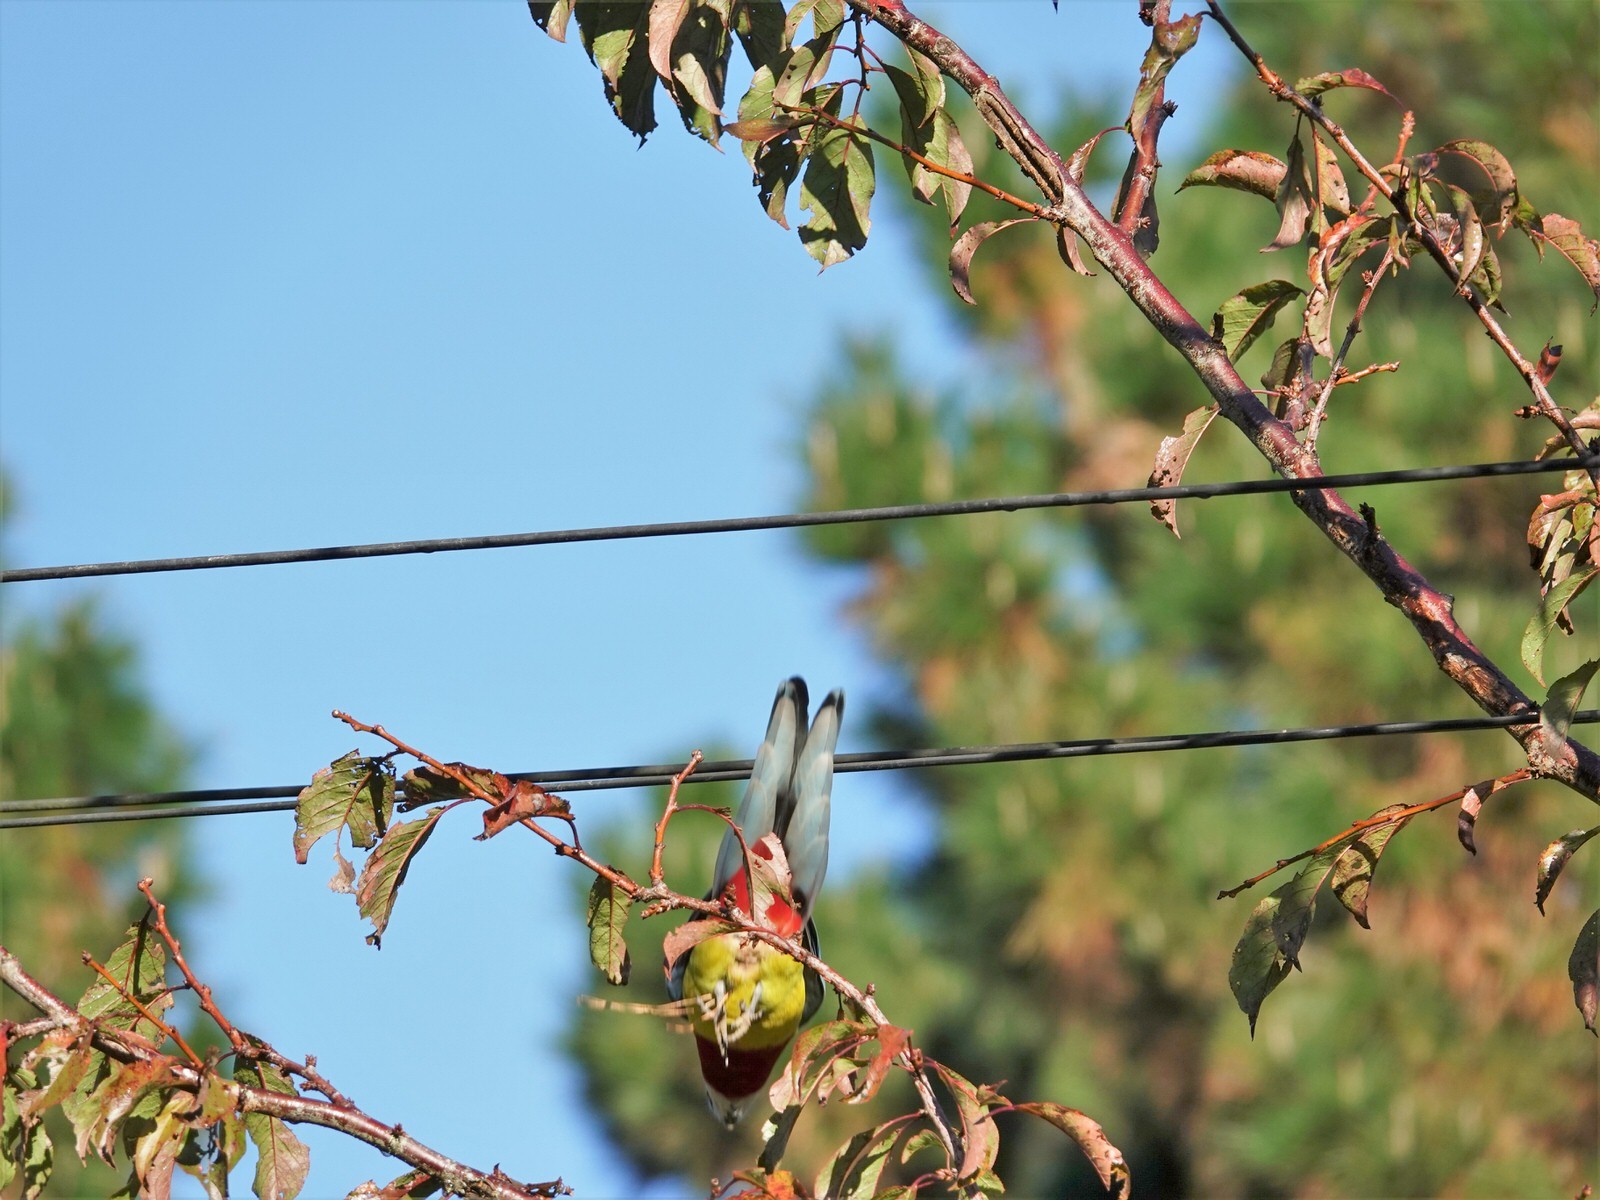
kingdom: Animalia
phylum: Chordata
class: Aves
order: Psittaciformes
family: Psittacidae
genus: Platycercus
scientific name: Platycercus eximius
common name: Eastern rosella
